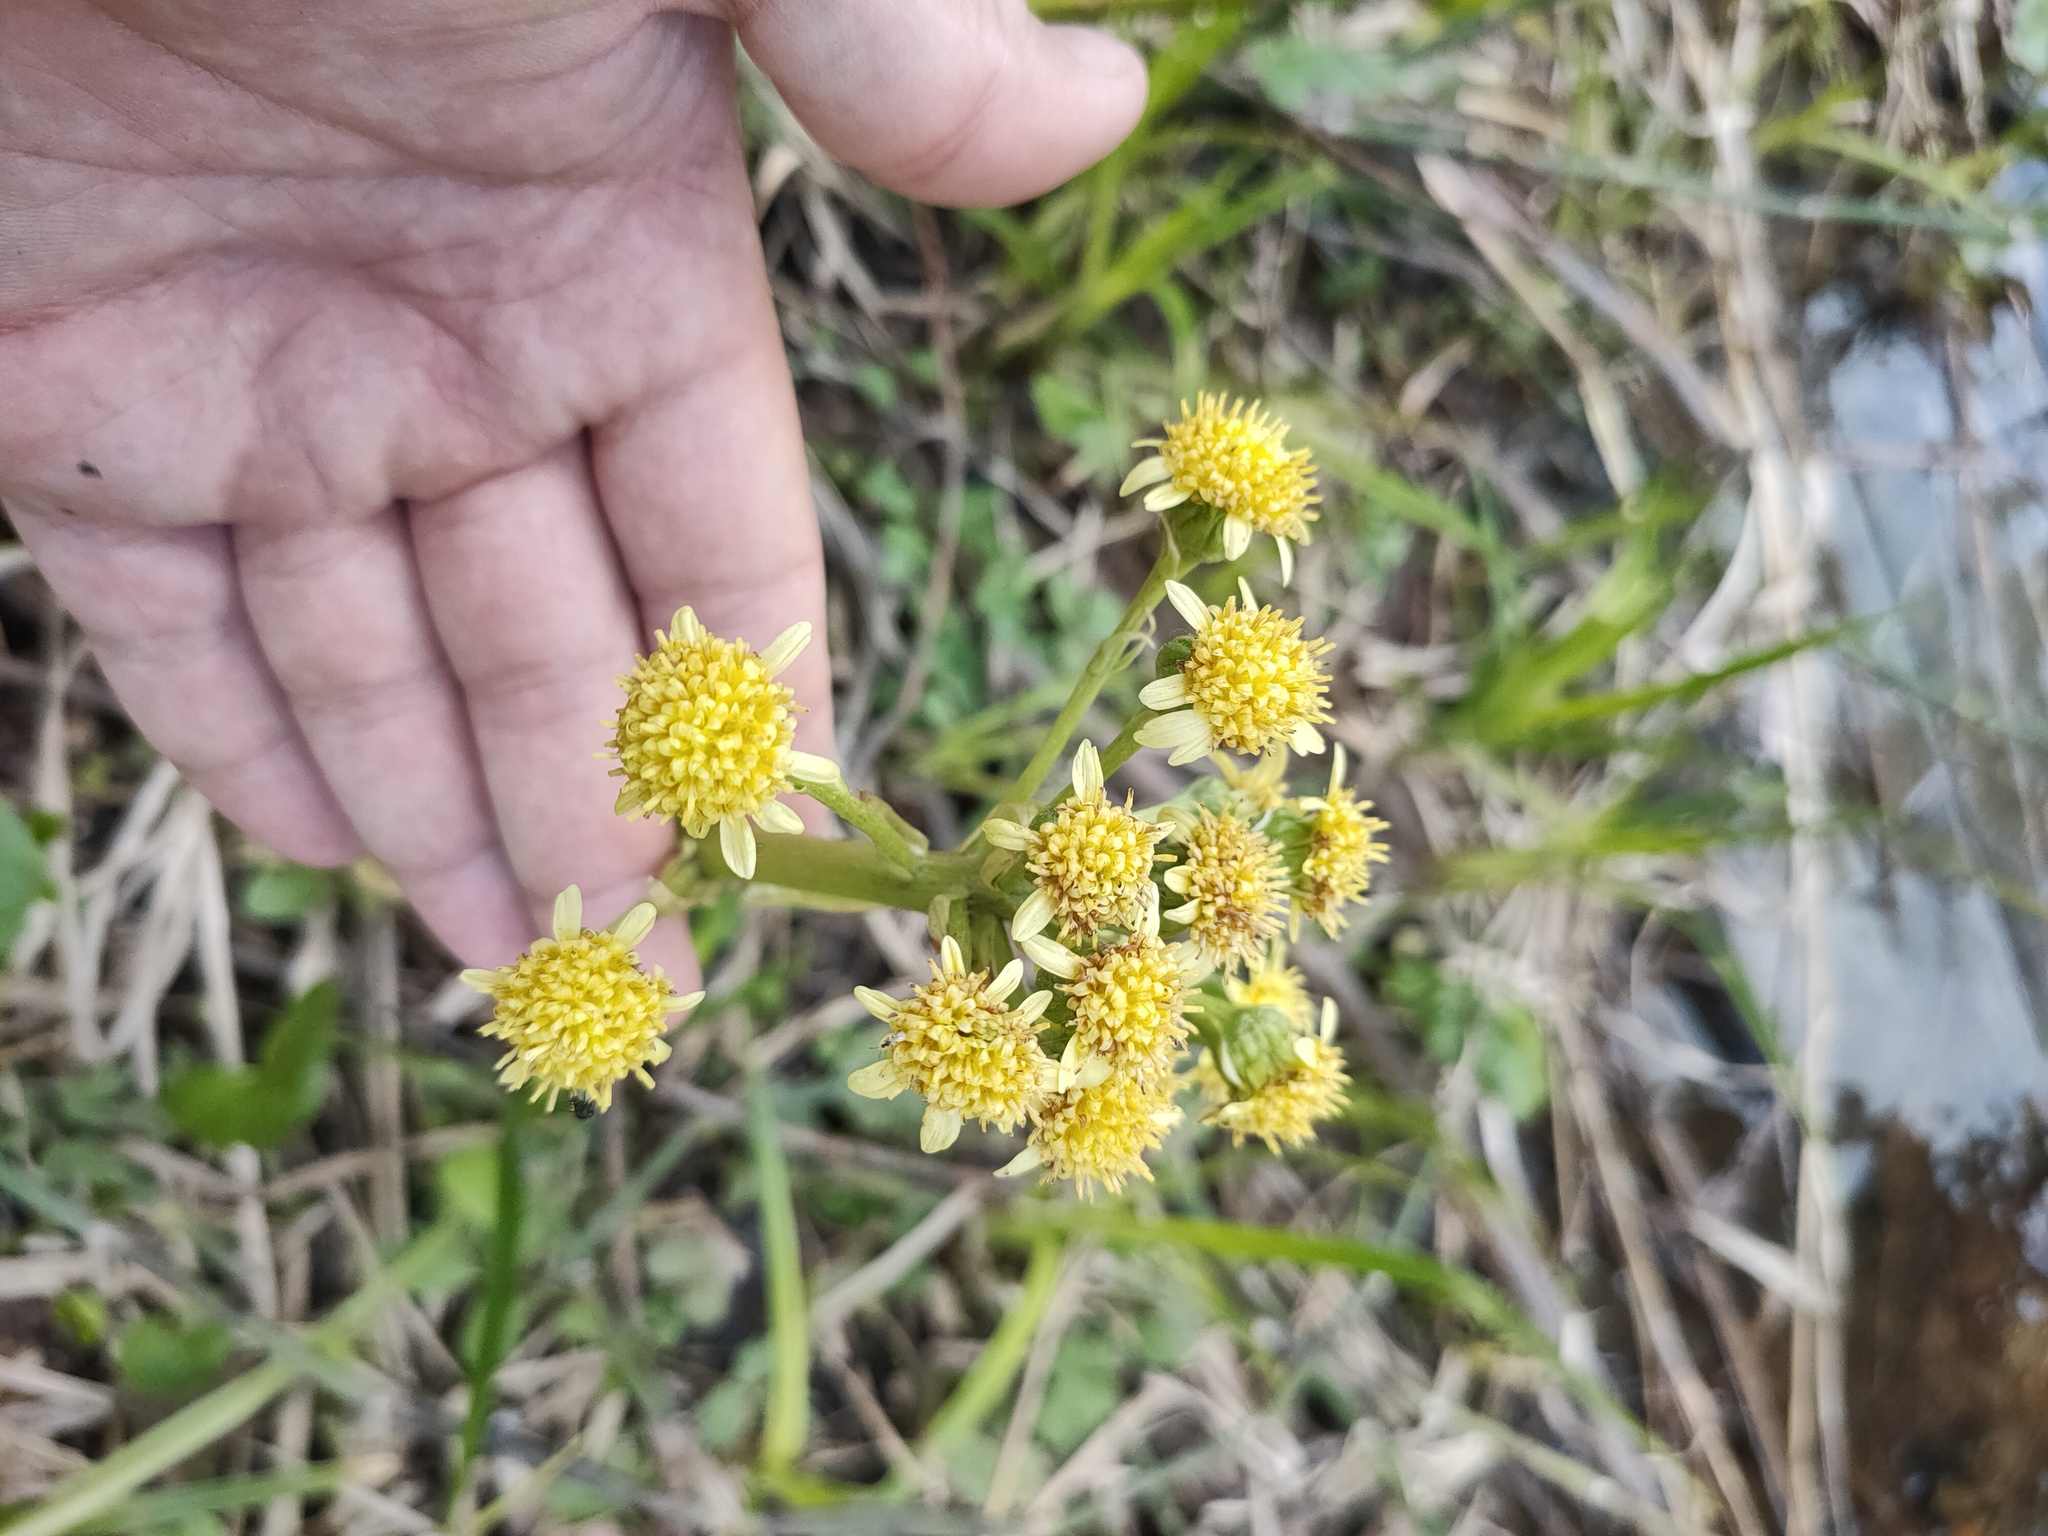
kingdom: Plantae
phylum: Tracheophyta
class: Magnoliopsida
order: Asterales
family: Asteraceae
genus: Petasites
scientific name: Petasites radiatus
